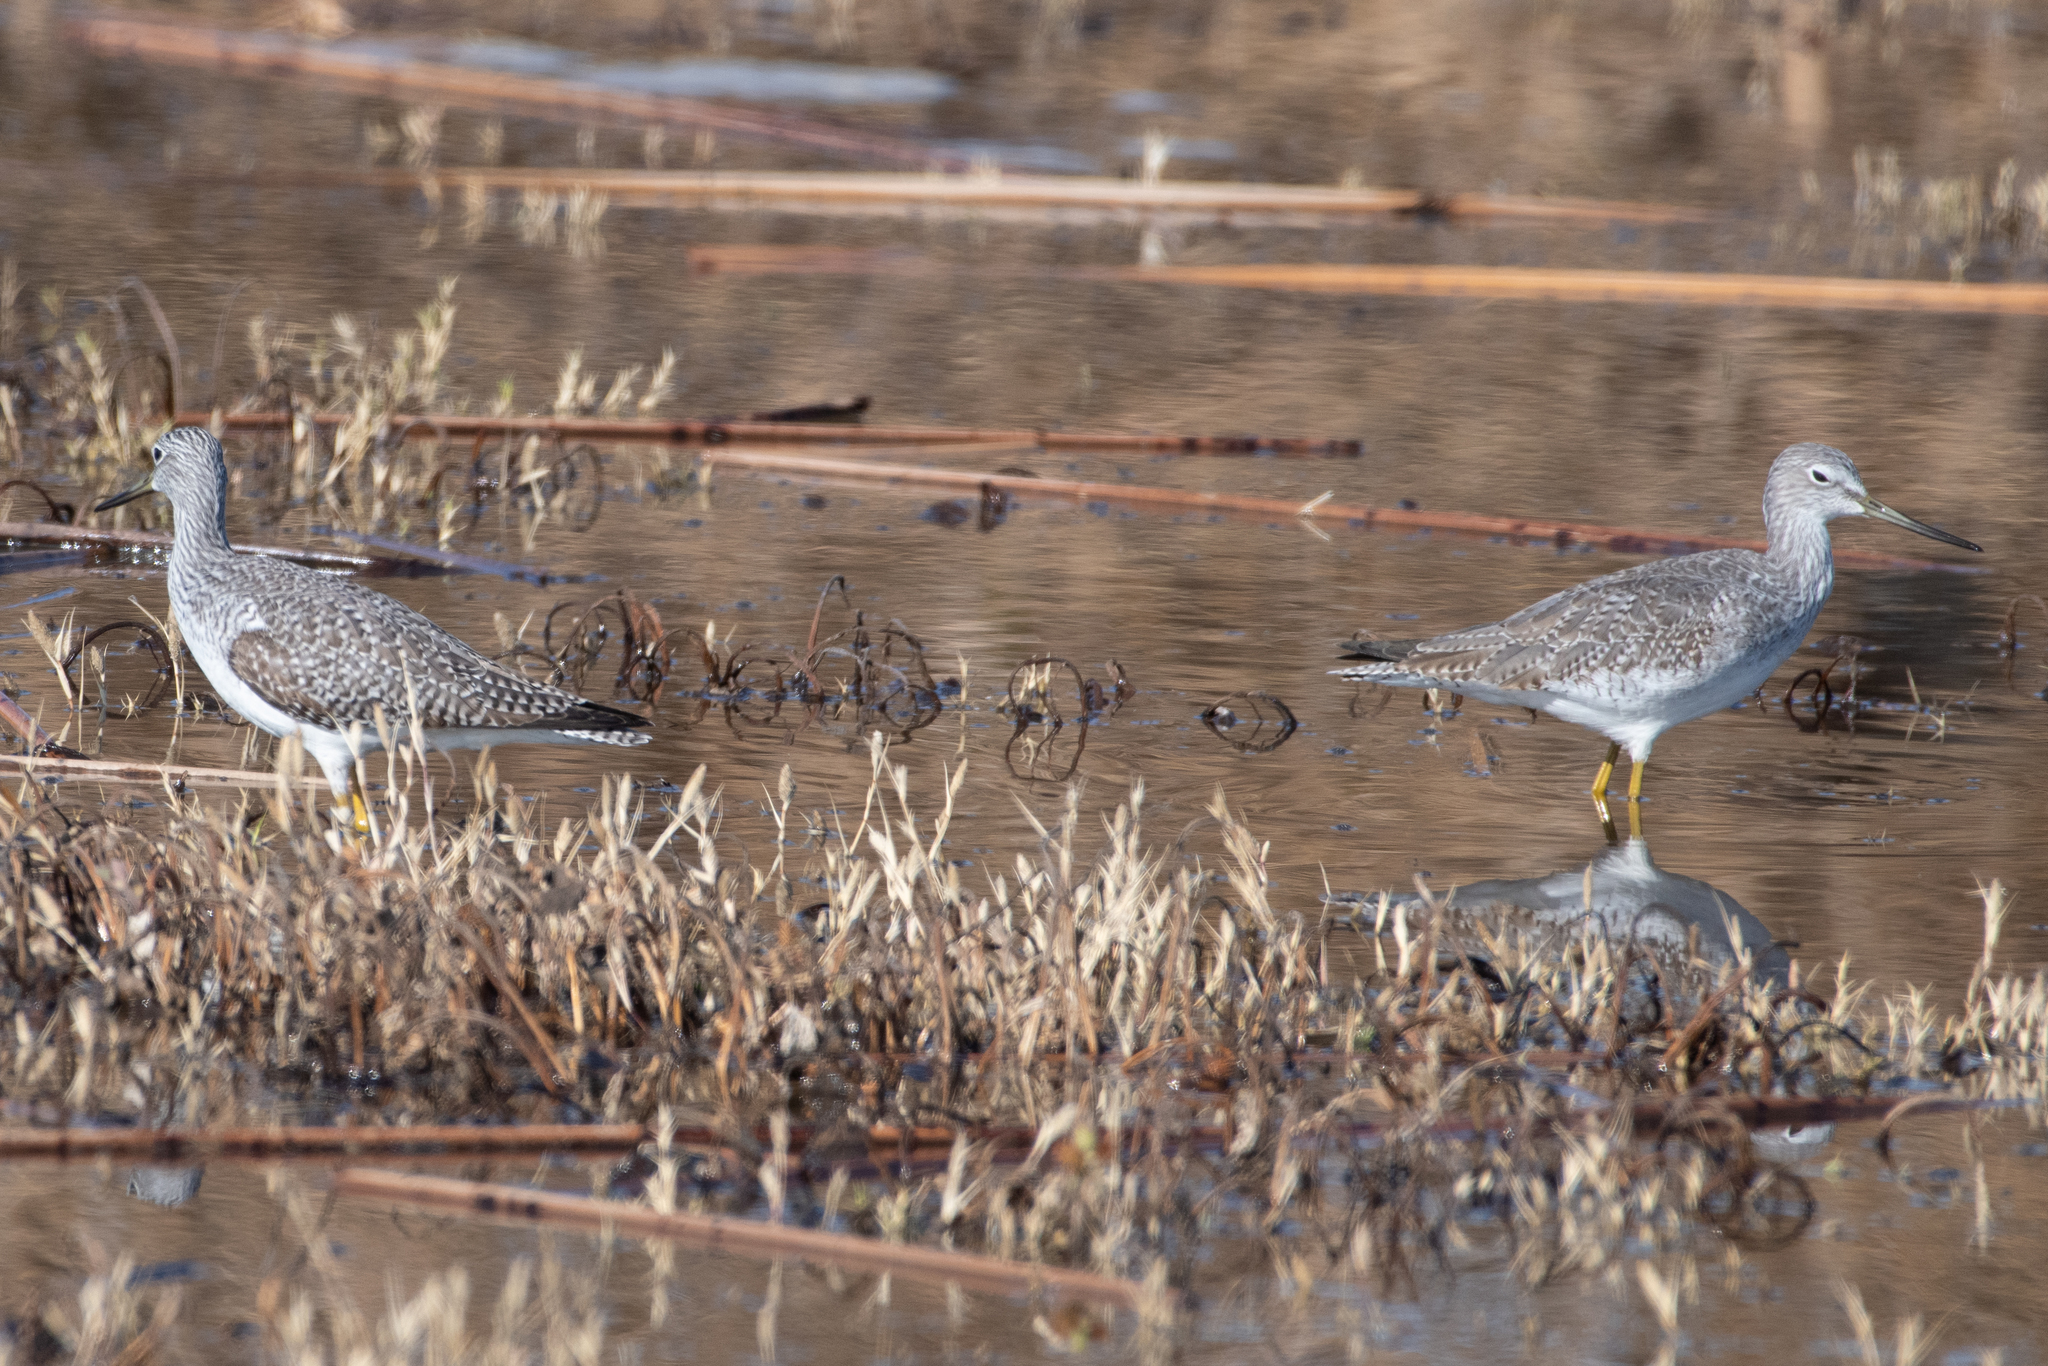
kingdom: Animalia
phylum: Chordata
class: Aves
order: Charadriiformes
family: Scolopacidae
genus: Tringa
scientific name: Tringa melanoleuca
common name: Greater yellowlegs
